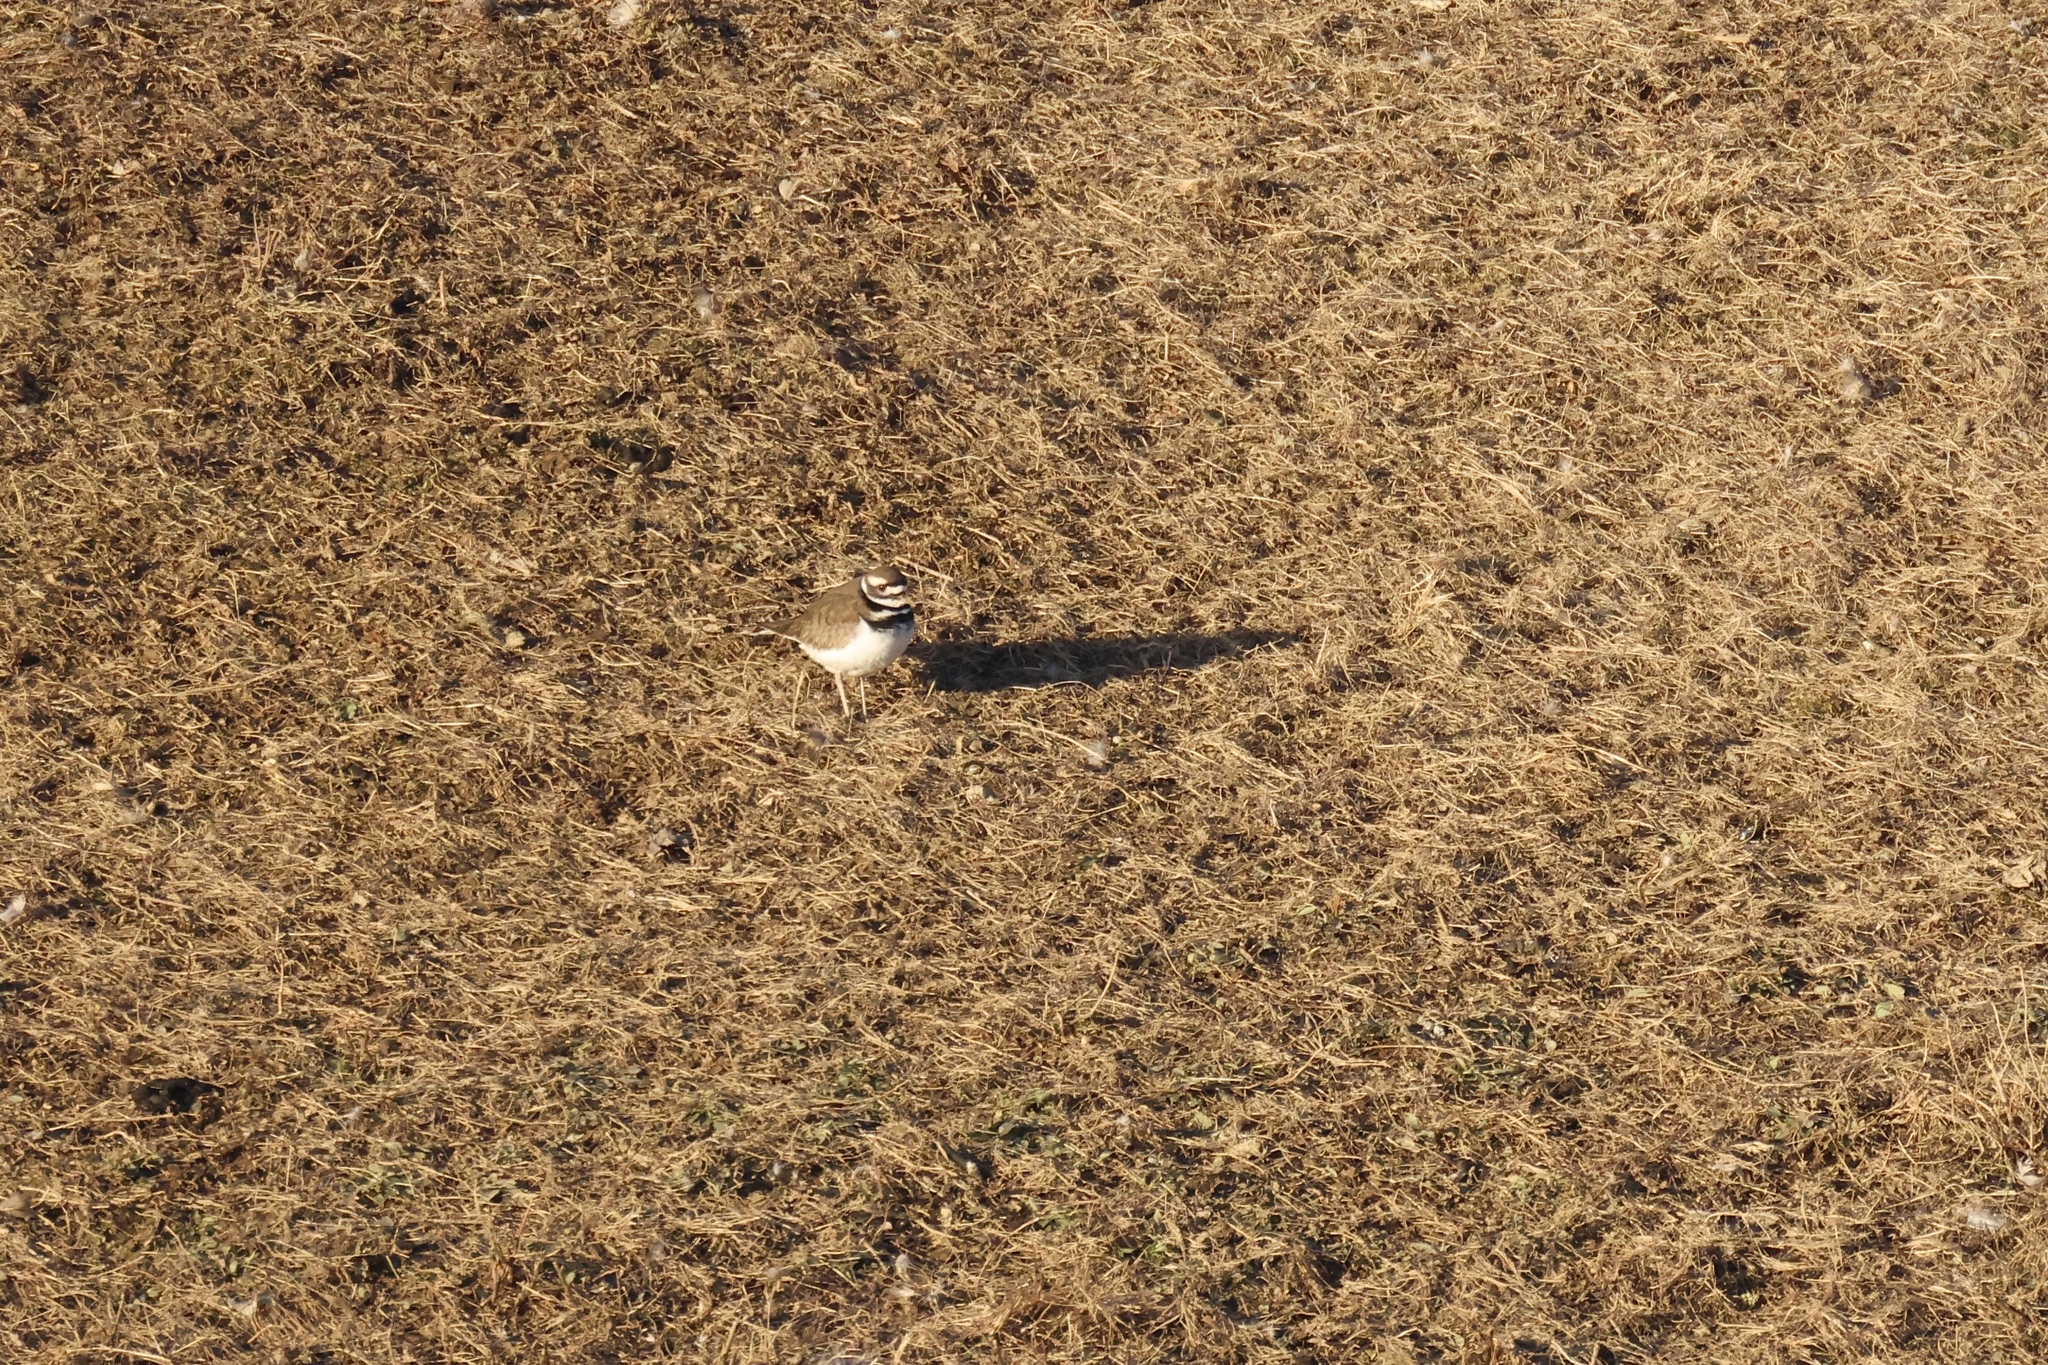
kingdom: Animalia
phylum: Chordata
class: Aves
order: Charadriiformes
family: Charadriidae
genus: Charadrius
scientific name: Charadrius vociferus
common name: Killdeer
